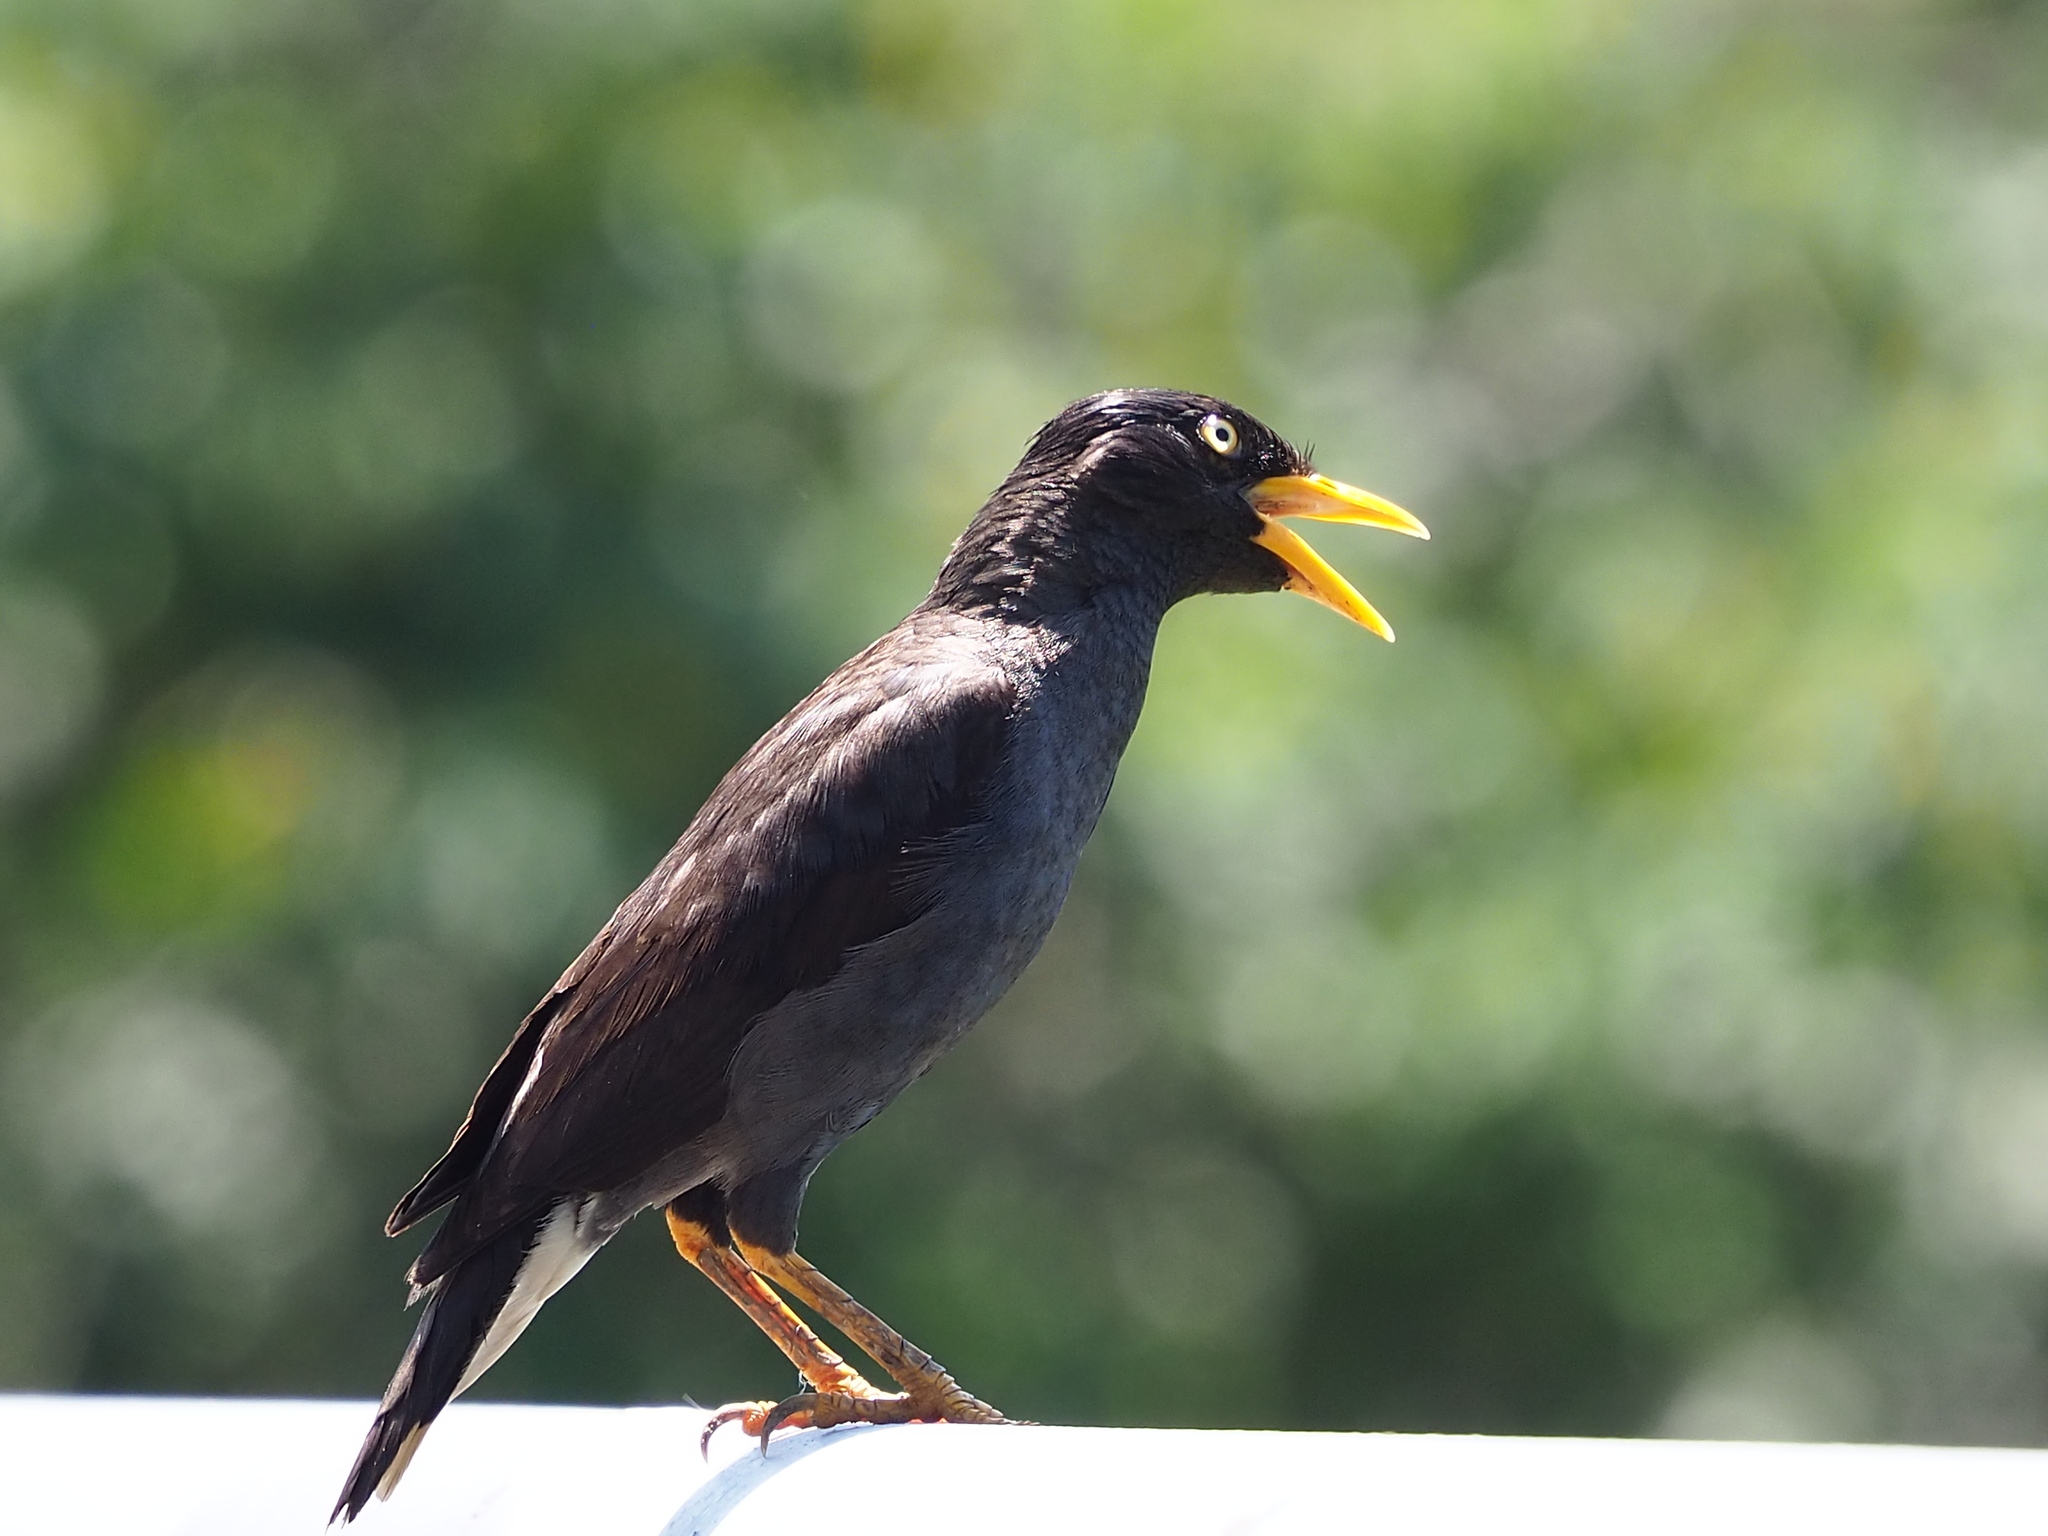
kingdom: Animalia
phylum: Chordata
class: Aves
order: Passeriformes
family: Sturnidae
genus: Acridotheres
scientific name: Acridotheres javanicus
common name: Javan myna
